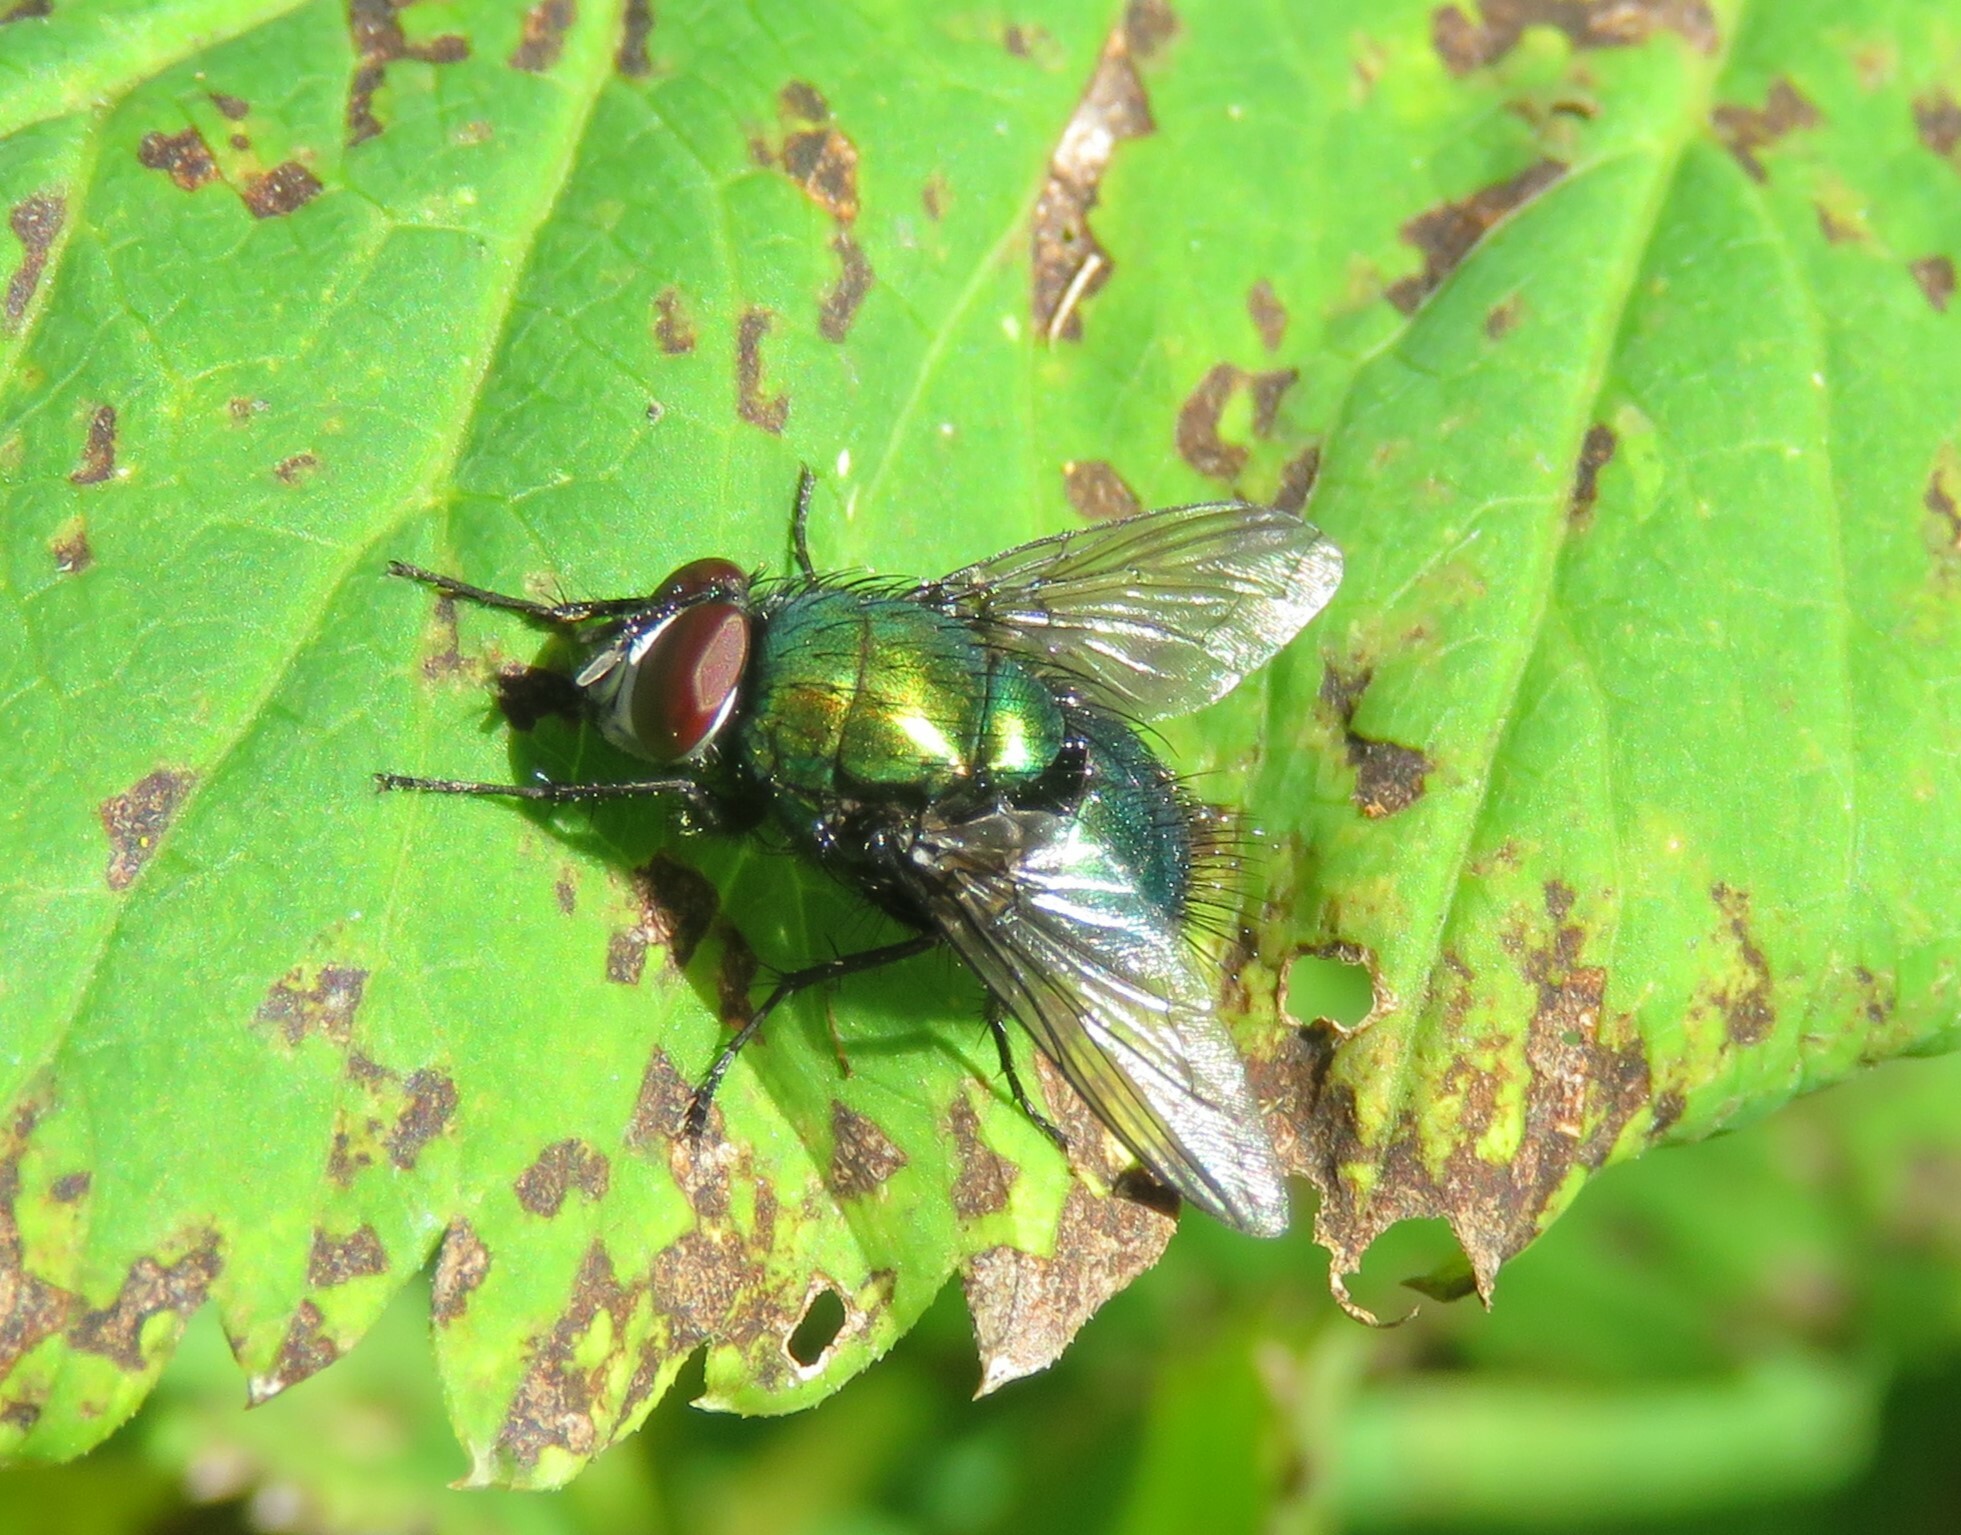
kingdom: Animalia
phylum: Arthropoda
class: Insecta
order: Diptera
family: Calliphoridae
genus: Lucilia
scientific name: Lucilia silvarum
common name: Marsh greenbottle
